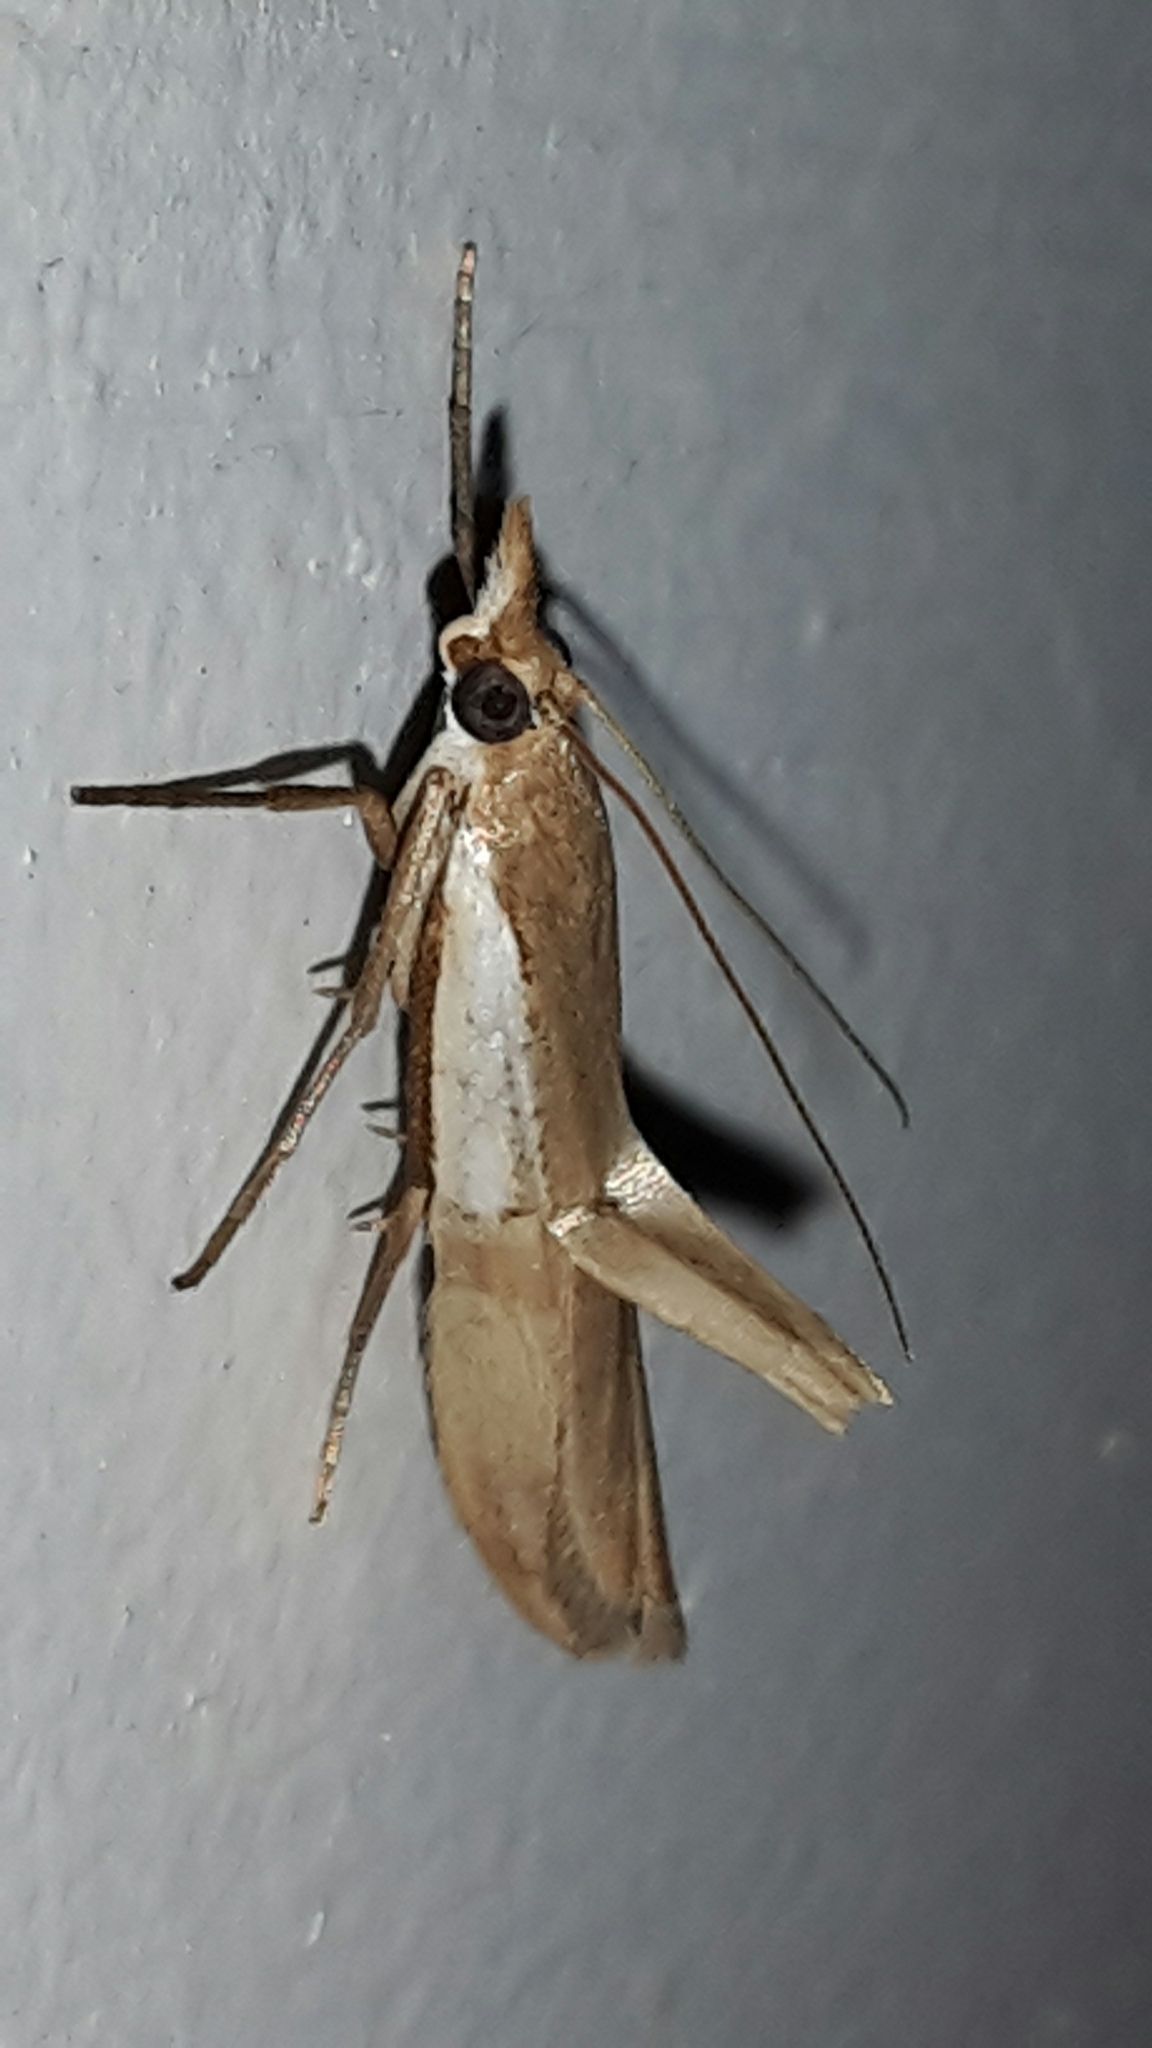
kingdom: Animalia
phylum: Arthropoda
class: Insecta
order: Lepidoptera
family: Crambidae
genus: Orocrambus
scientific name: Orocrambus flexuosellus
